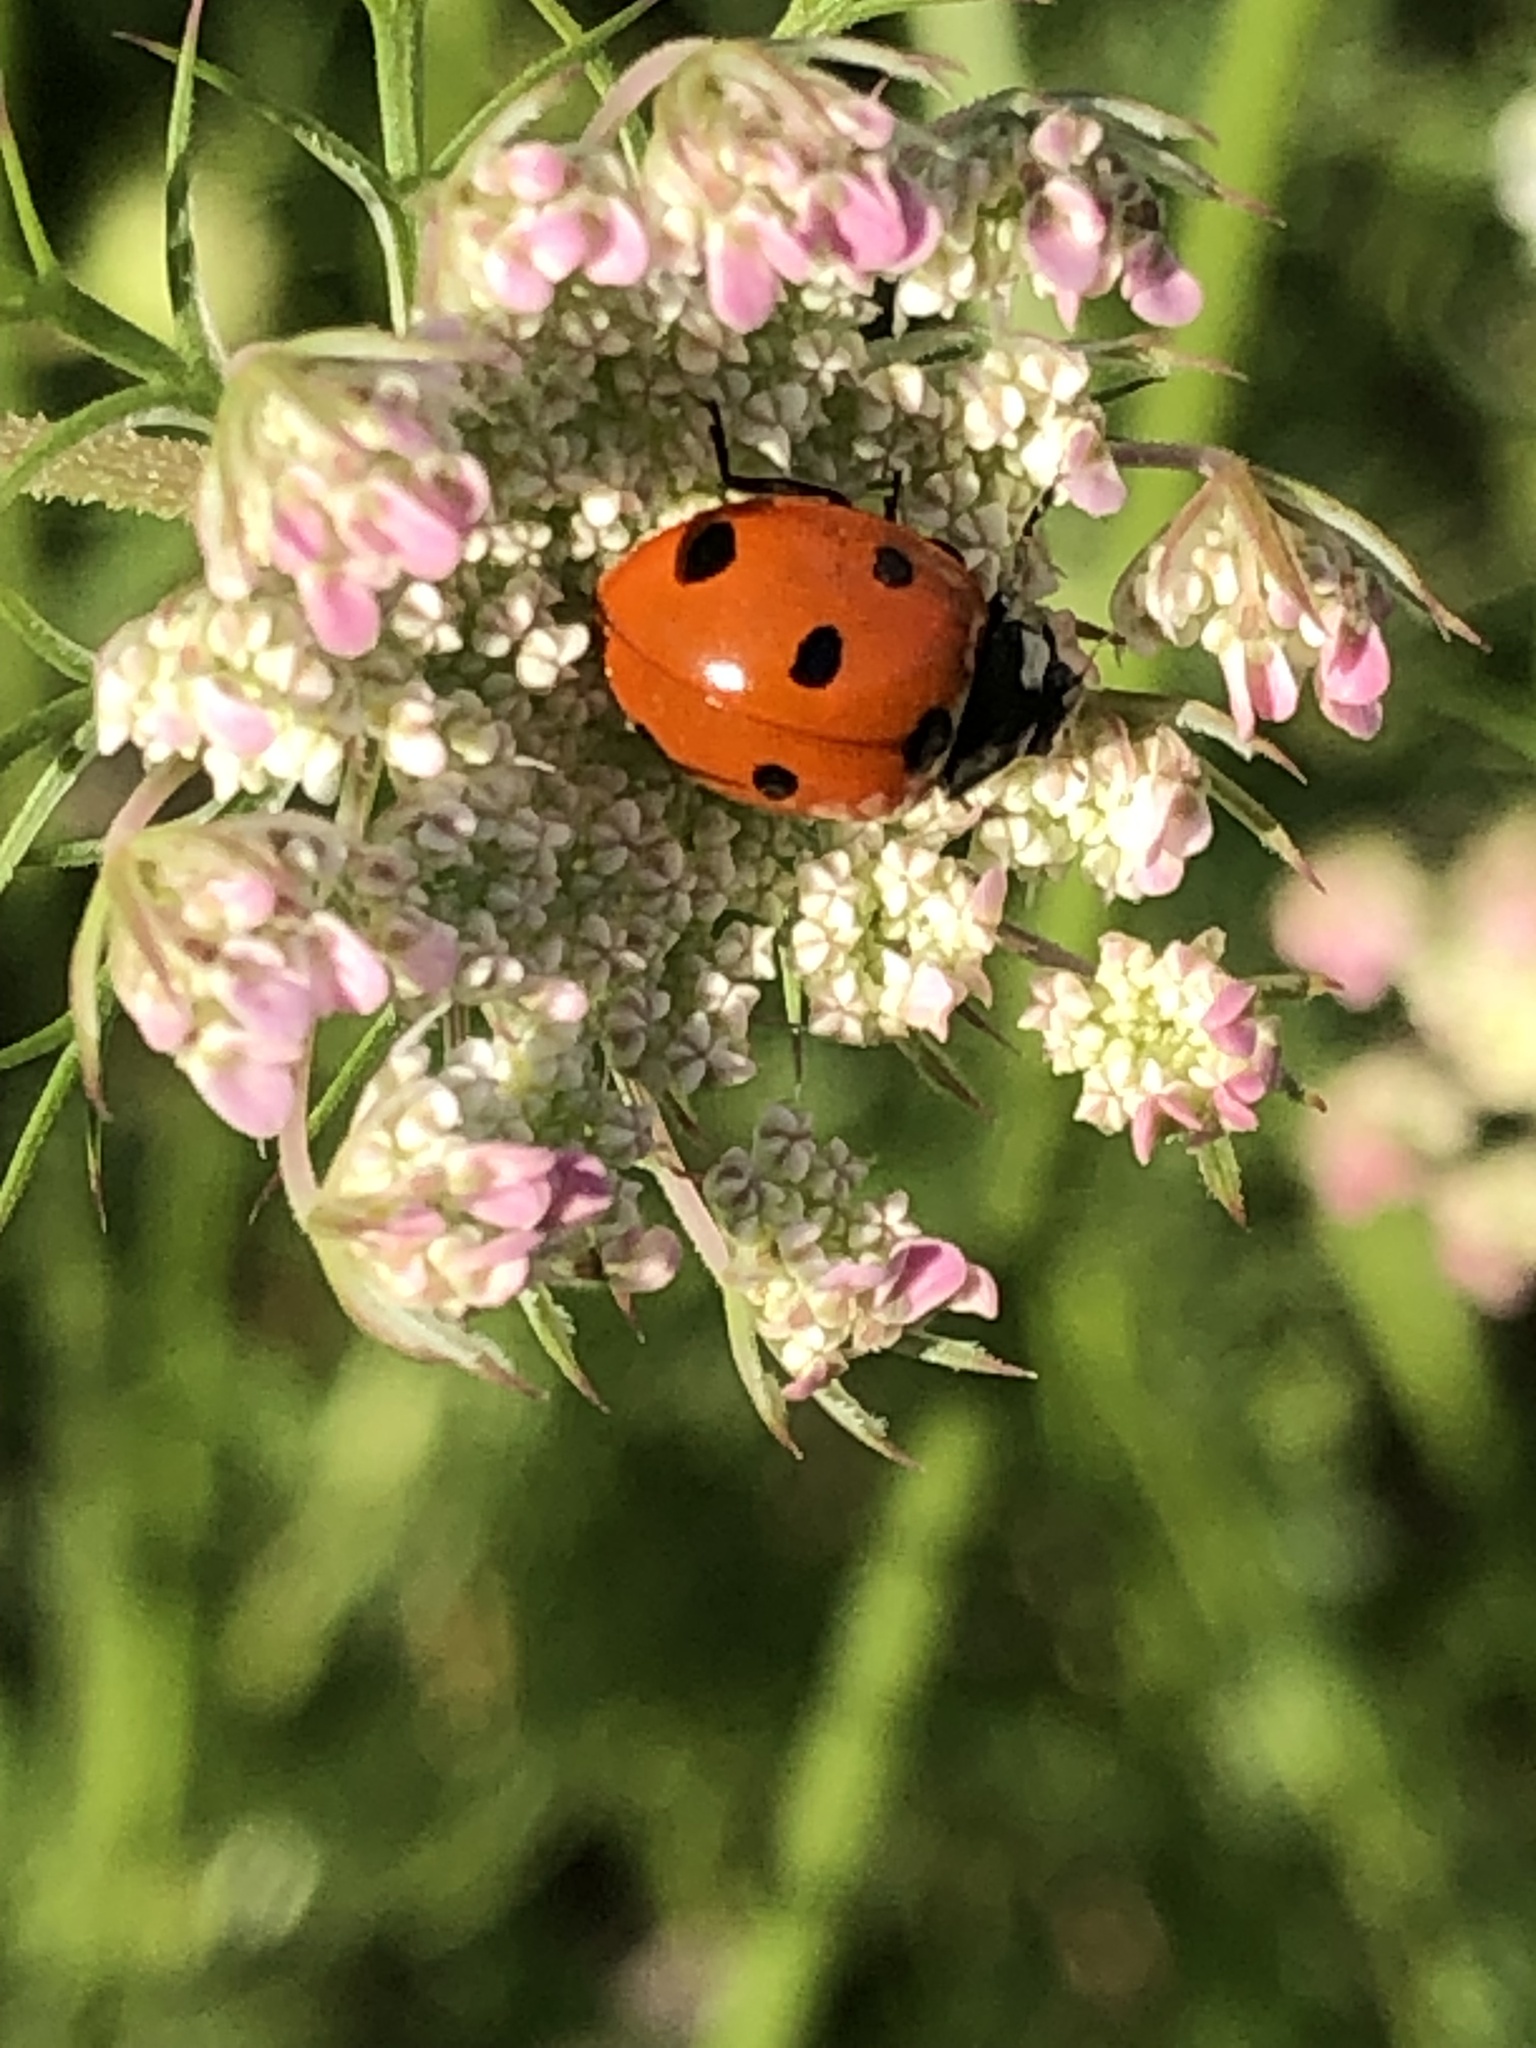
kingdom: Animalia
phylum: Arthropoda
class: Insecta
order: Coleoptera
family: Coccinellidae
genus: Coccinella
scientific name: Coccinella septempunctata
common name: Sevenspotted lady beetle
